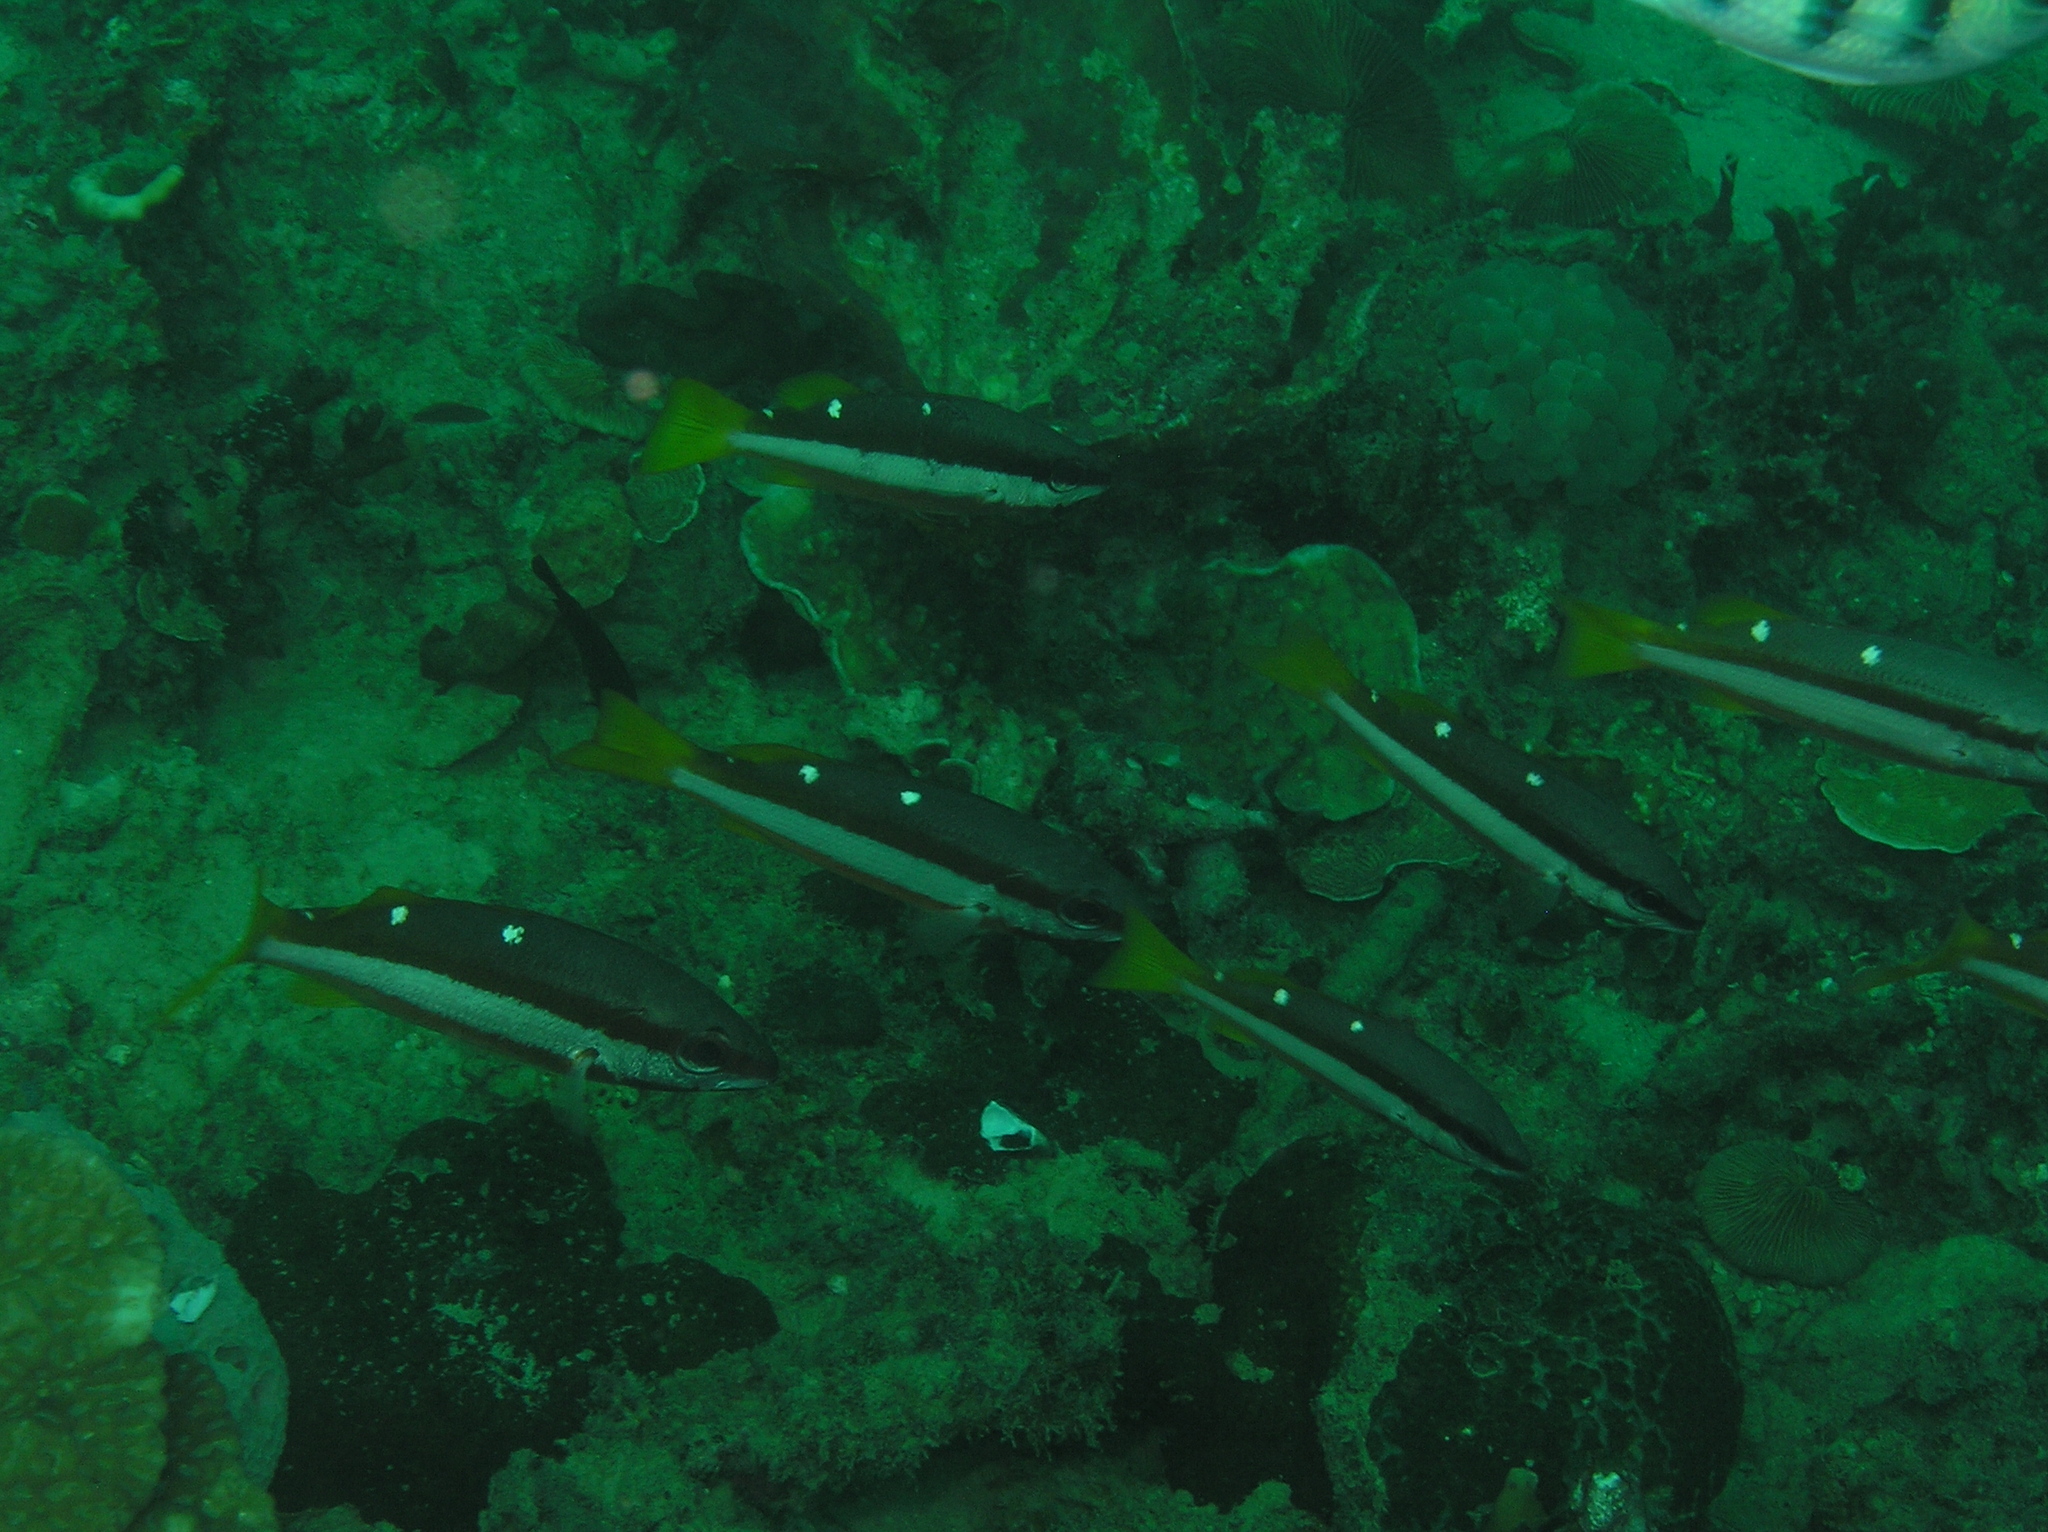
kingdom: Animalia
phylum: Chordata
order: Perciformes
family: Lutjanidae
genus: Lutjanus
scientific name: Lutjanus biguttatus
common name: Two-spot snapper
